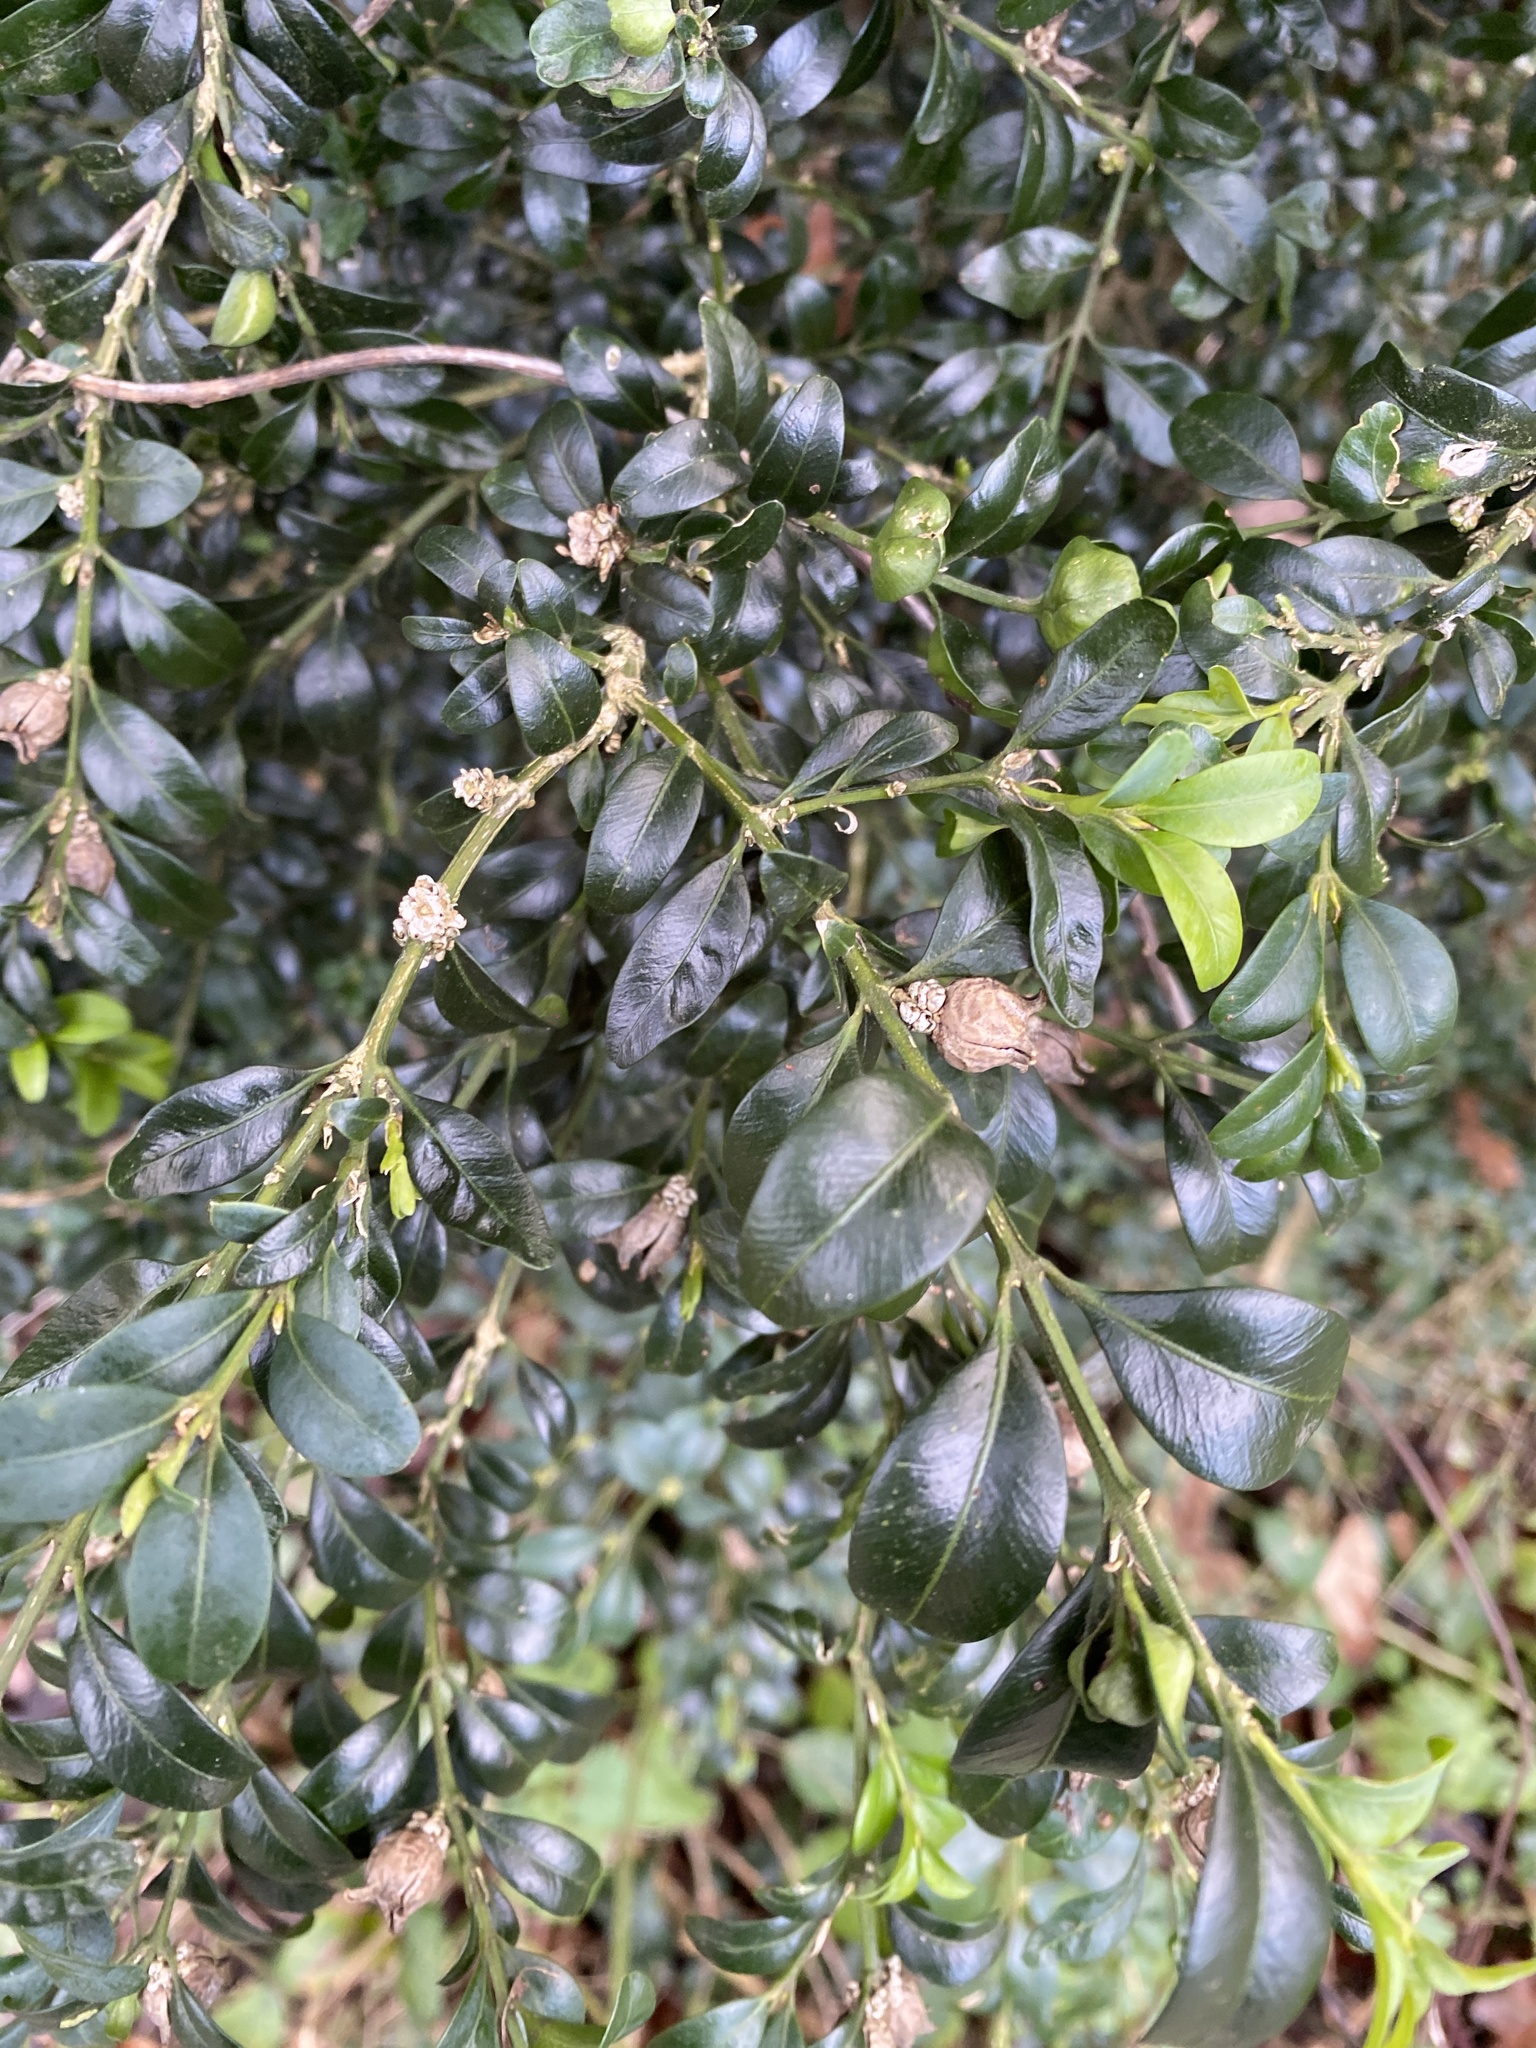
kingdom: Plantae
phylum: Tracheophyta
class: Magnoliopsida
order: Buxales
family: Buxaceae
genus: Buxus
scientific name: Buxus sempervirens
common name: Box
